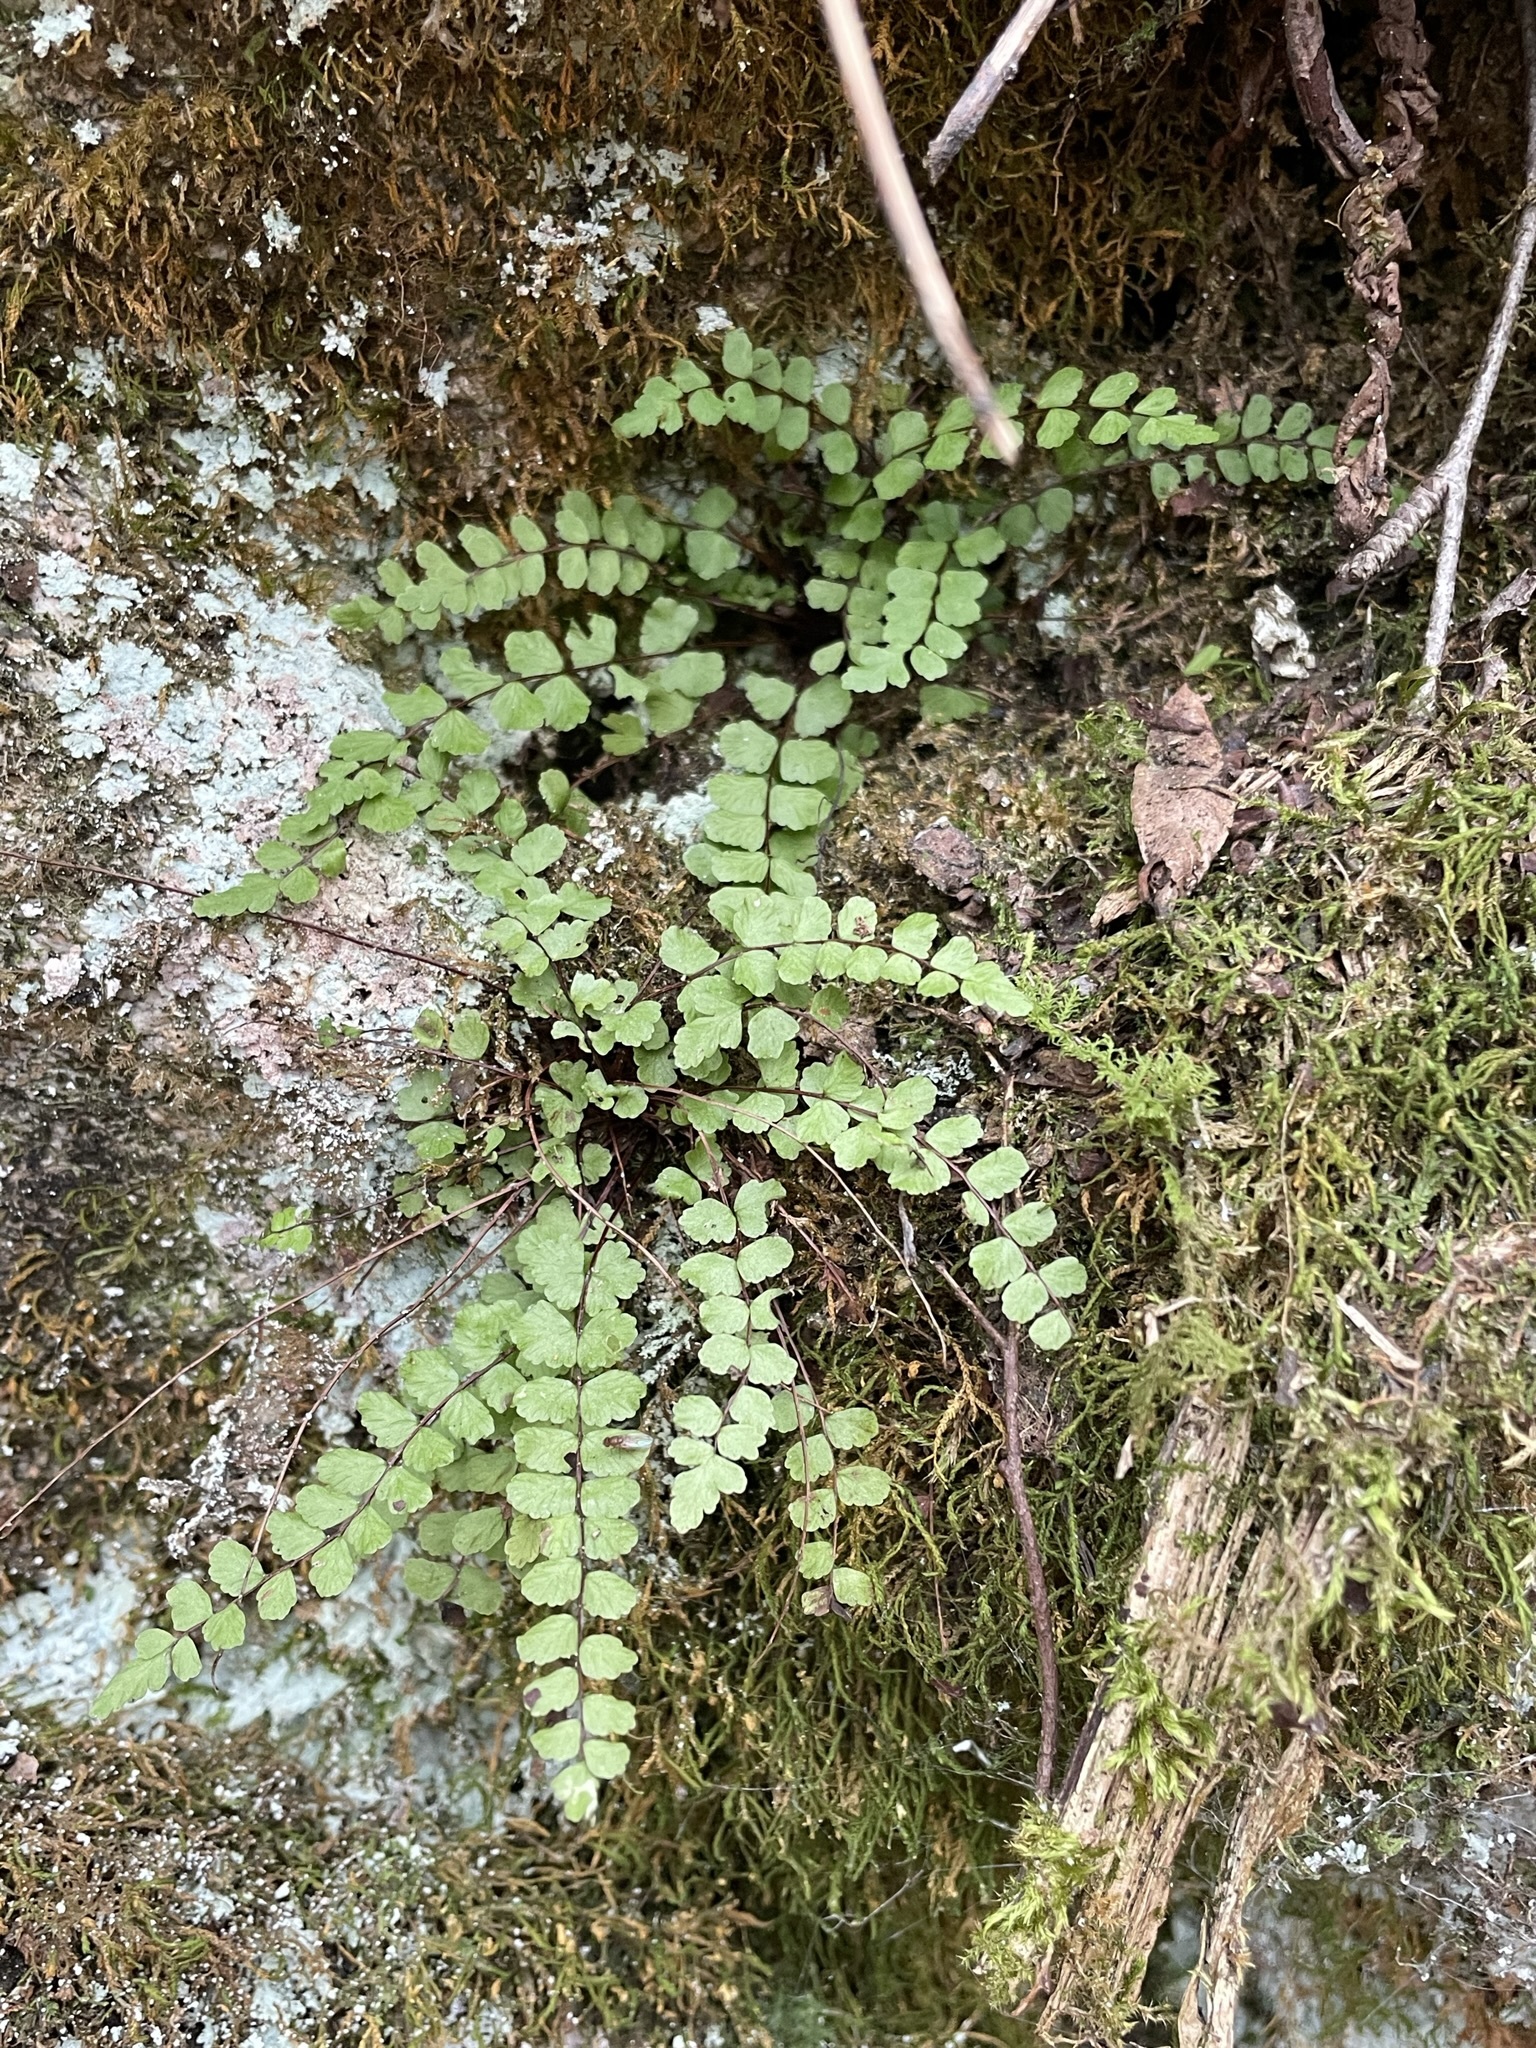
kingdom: Plantae
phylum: Tracheophyta
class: Polypodiopsida
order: Polypodiales
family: Aspleniaceae
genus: Asplenium
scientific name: Asplenium trichomanes
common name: Maidenhair spleenwort
